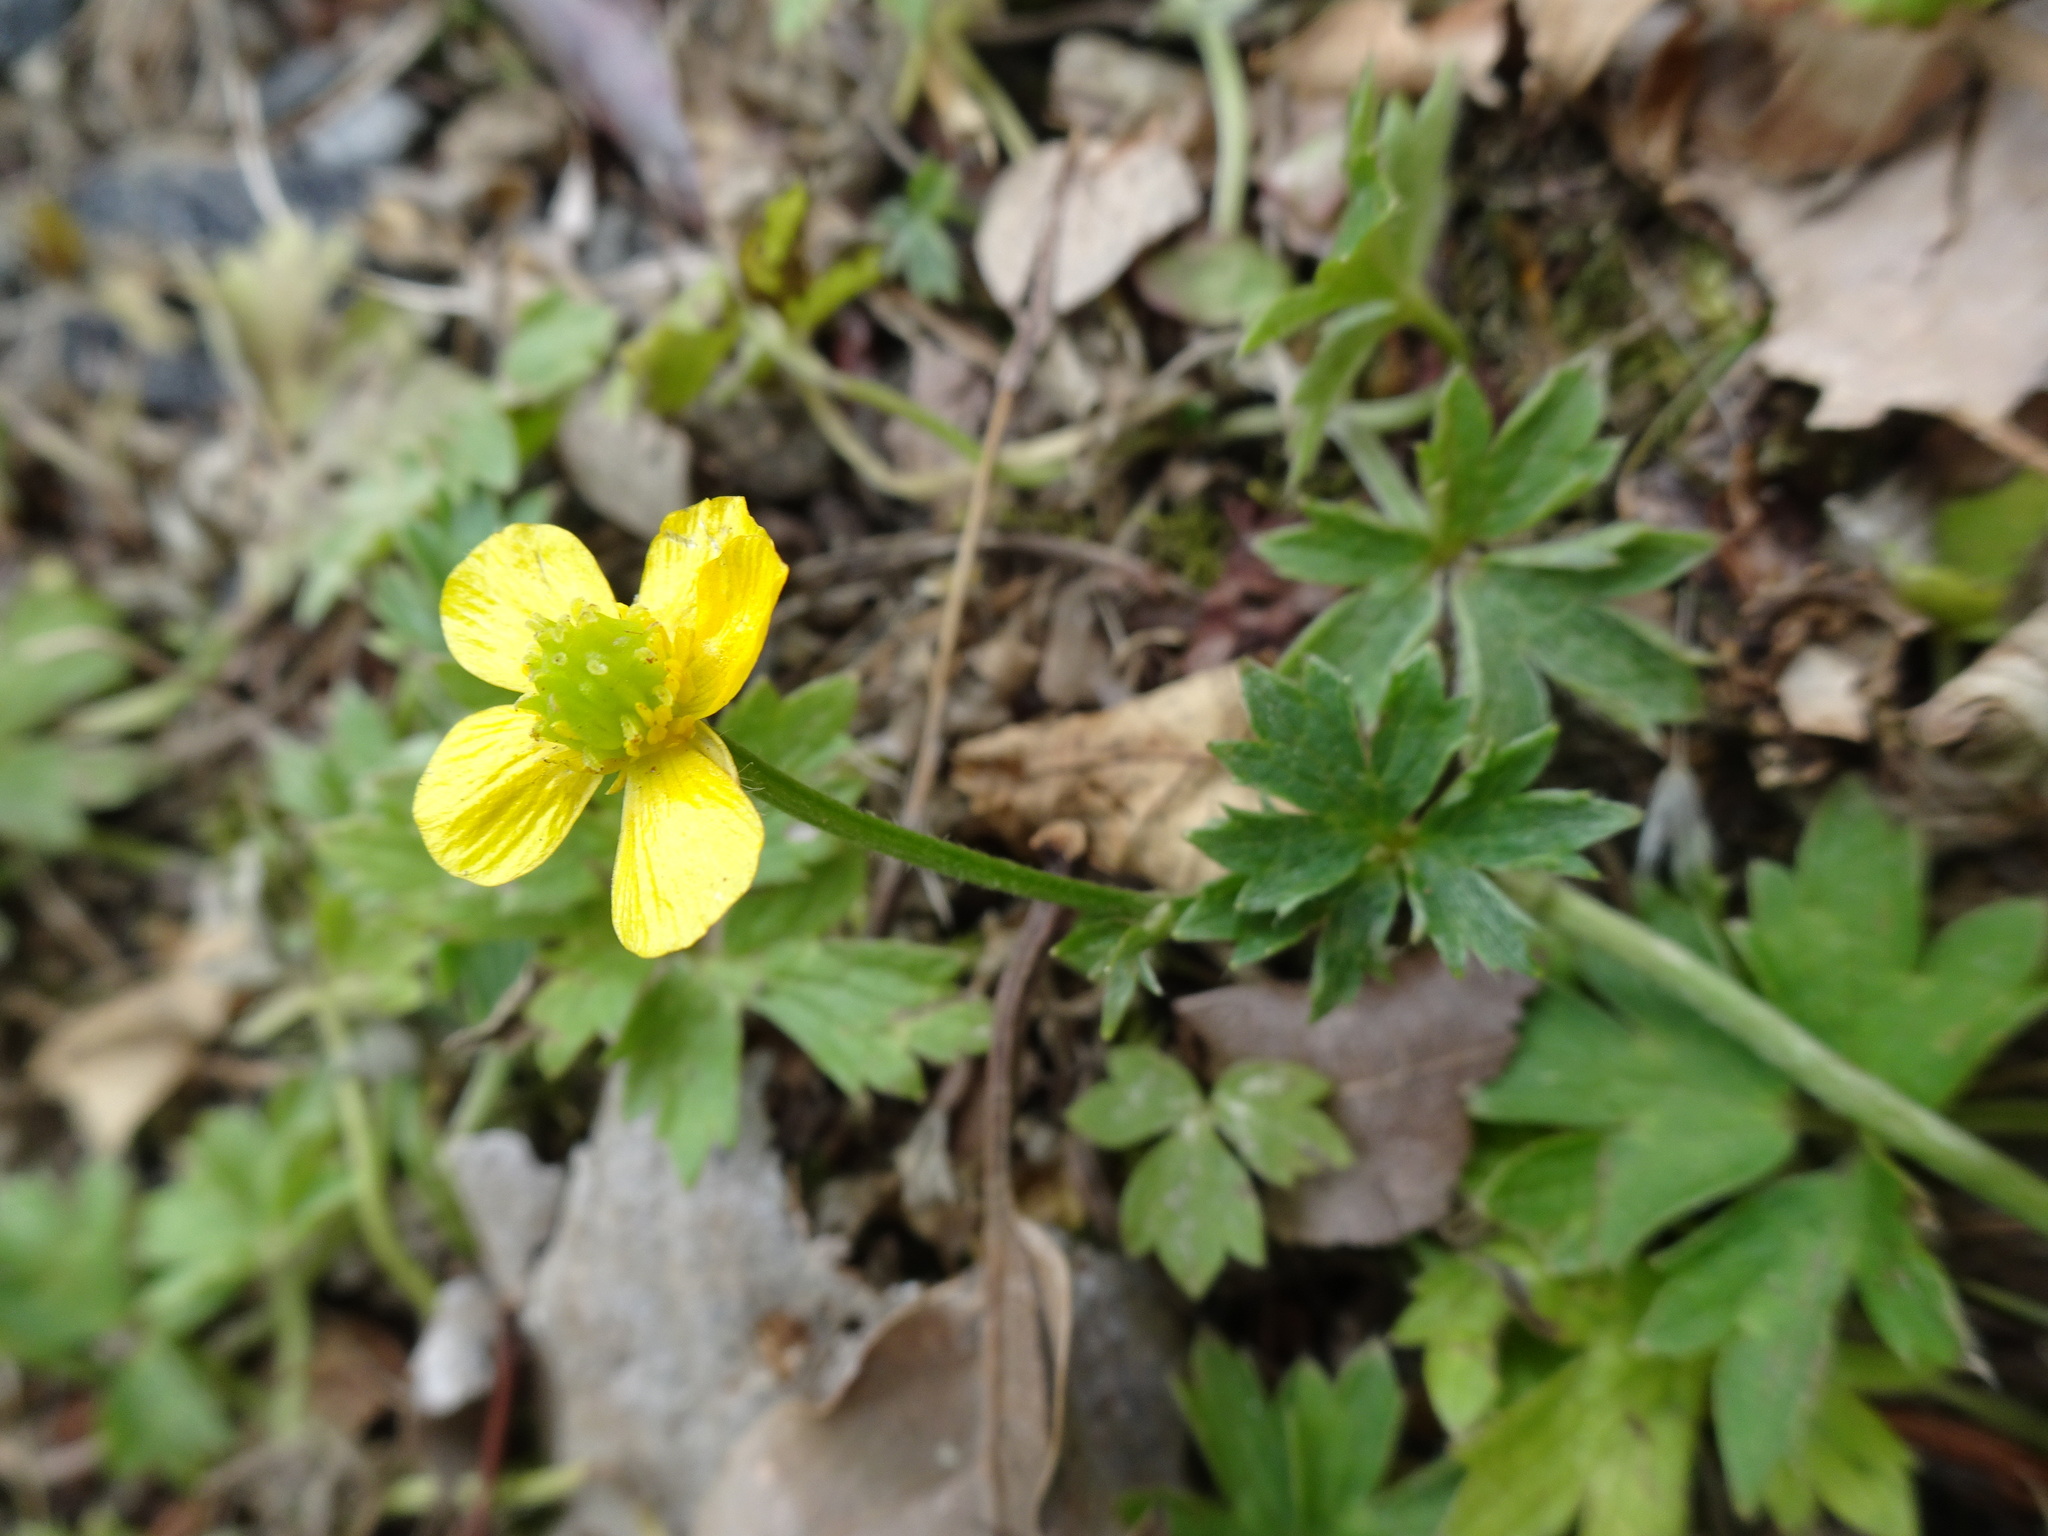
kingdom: Plantae
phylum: Tracheophyta
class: Magnoliopsida
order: Ranunculales
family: Ranunculaceae
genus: Ranunculus
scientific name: Ranunculus repens
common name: Creeping buttercup
